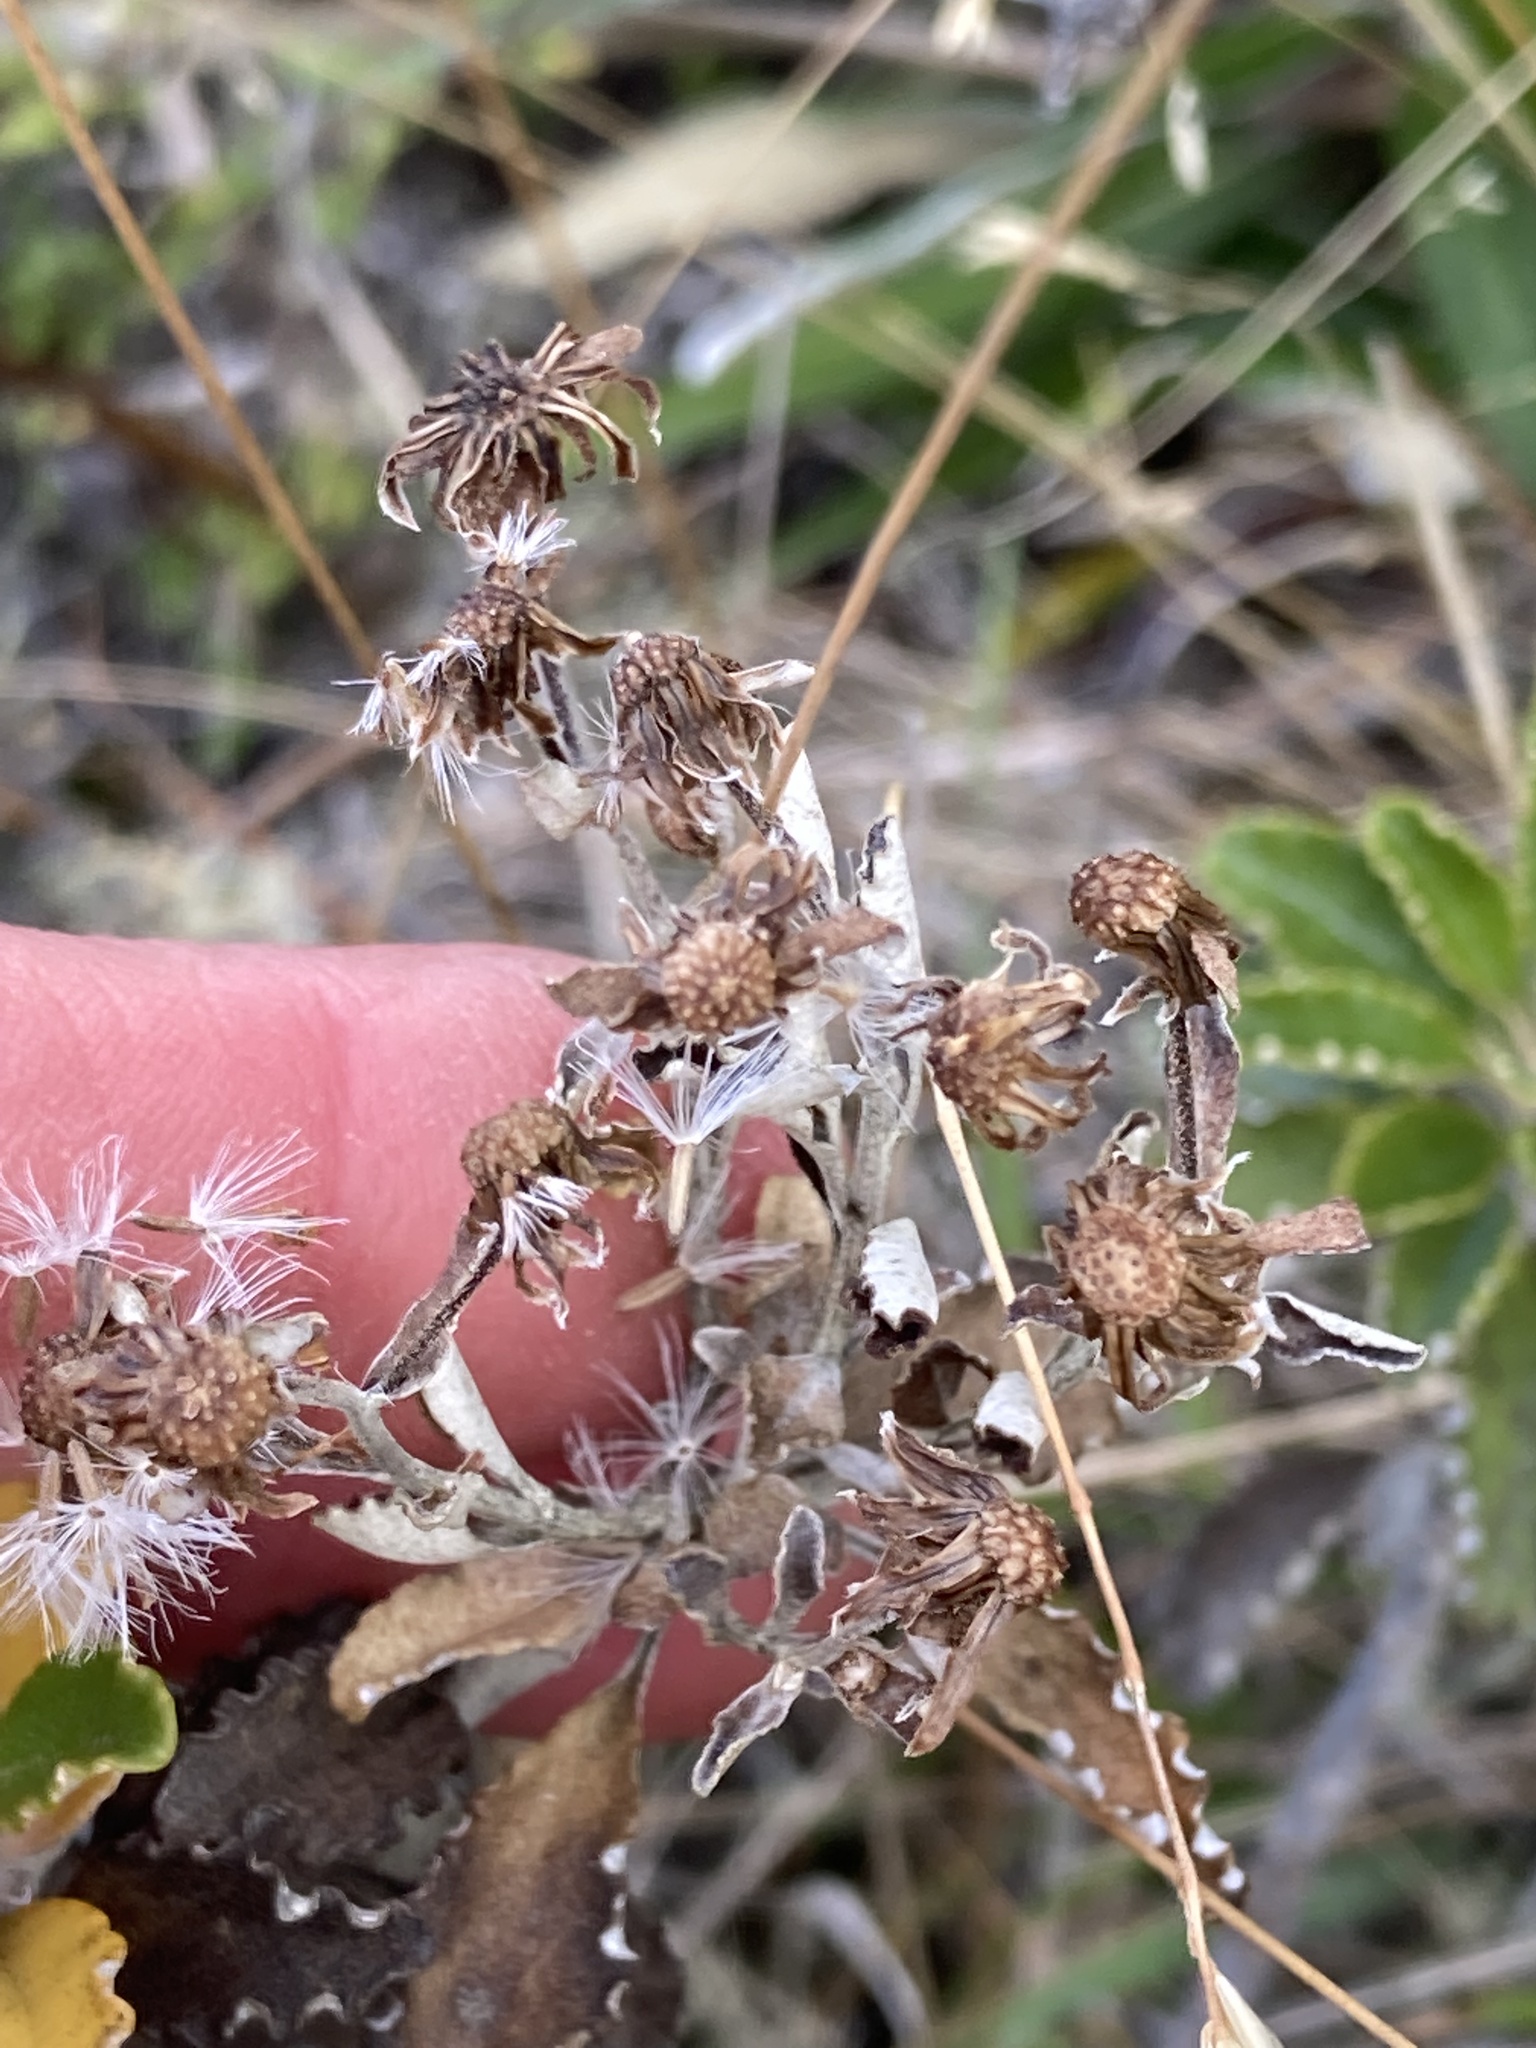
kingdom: Plantae
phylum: Tracheophyta
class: Magnoliopsida
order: Asterales
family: Asteraceae
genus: Brachyglottis
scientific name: Brachyglottis monroi
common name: Monro's ragwort
